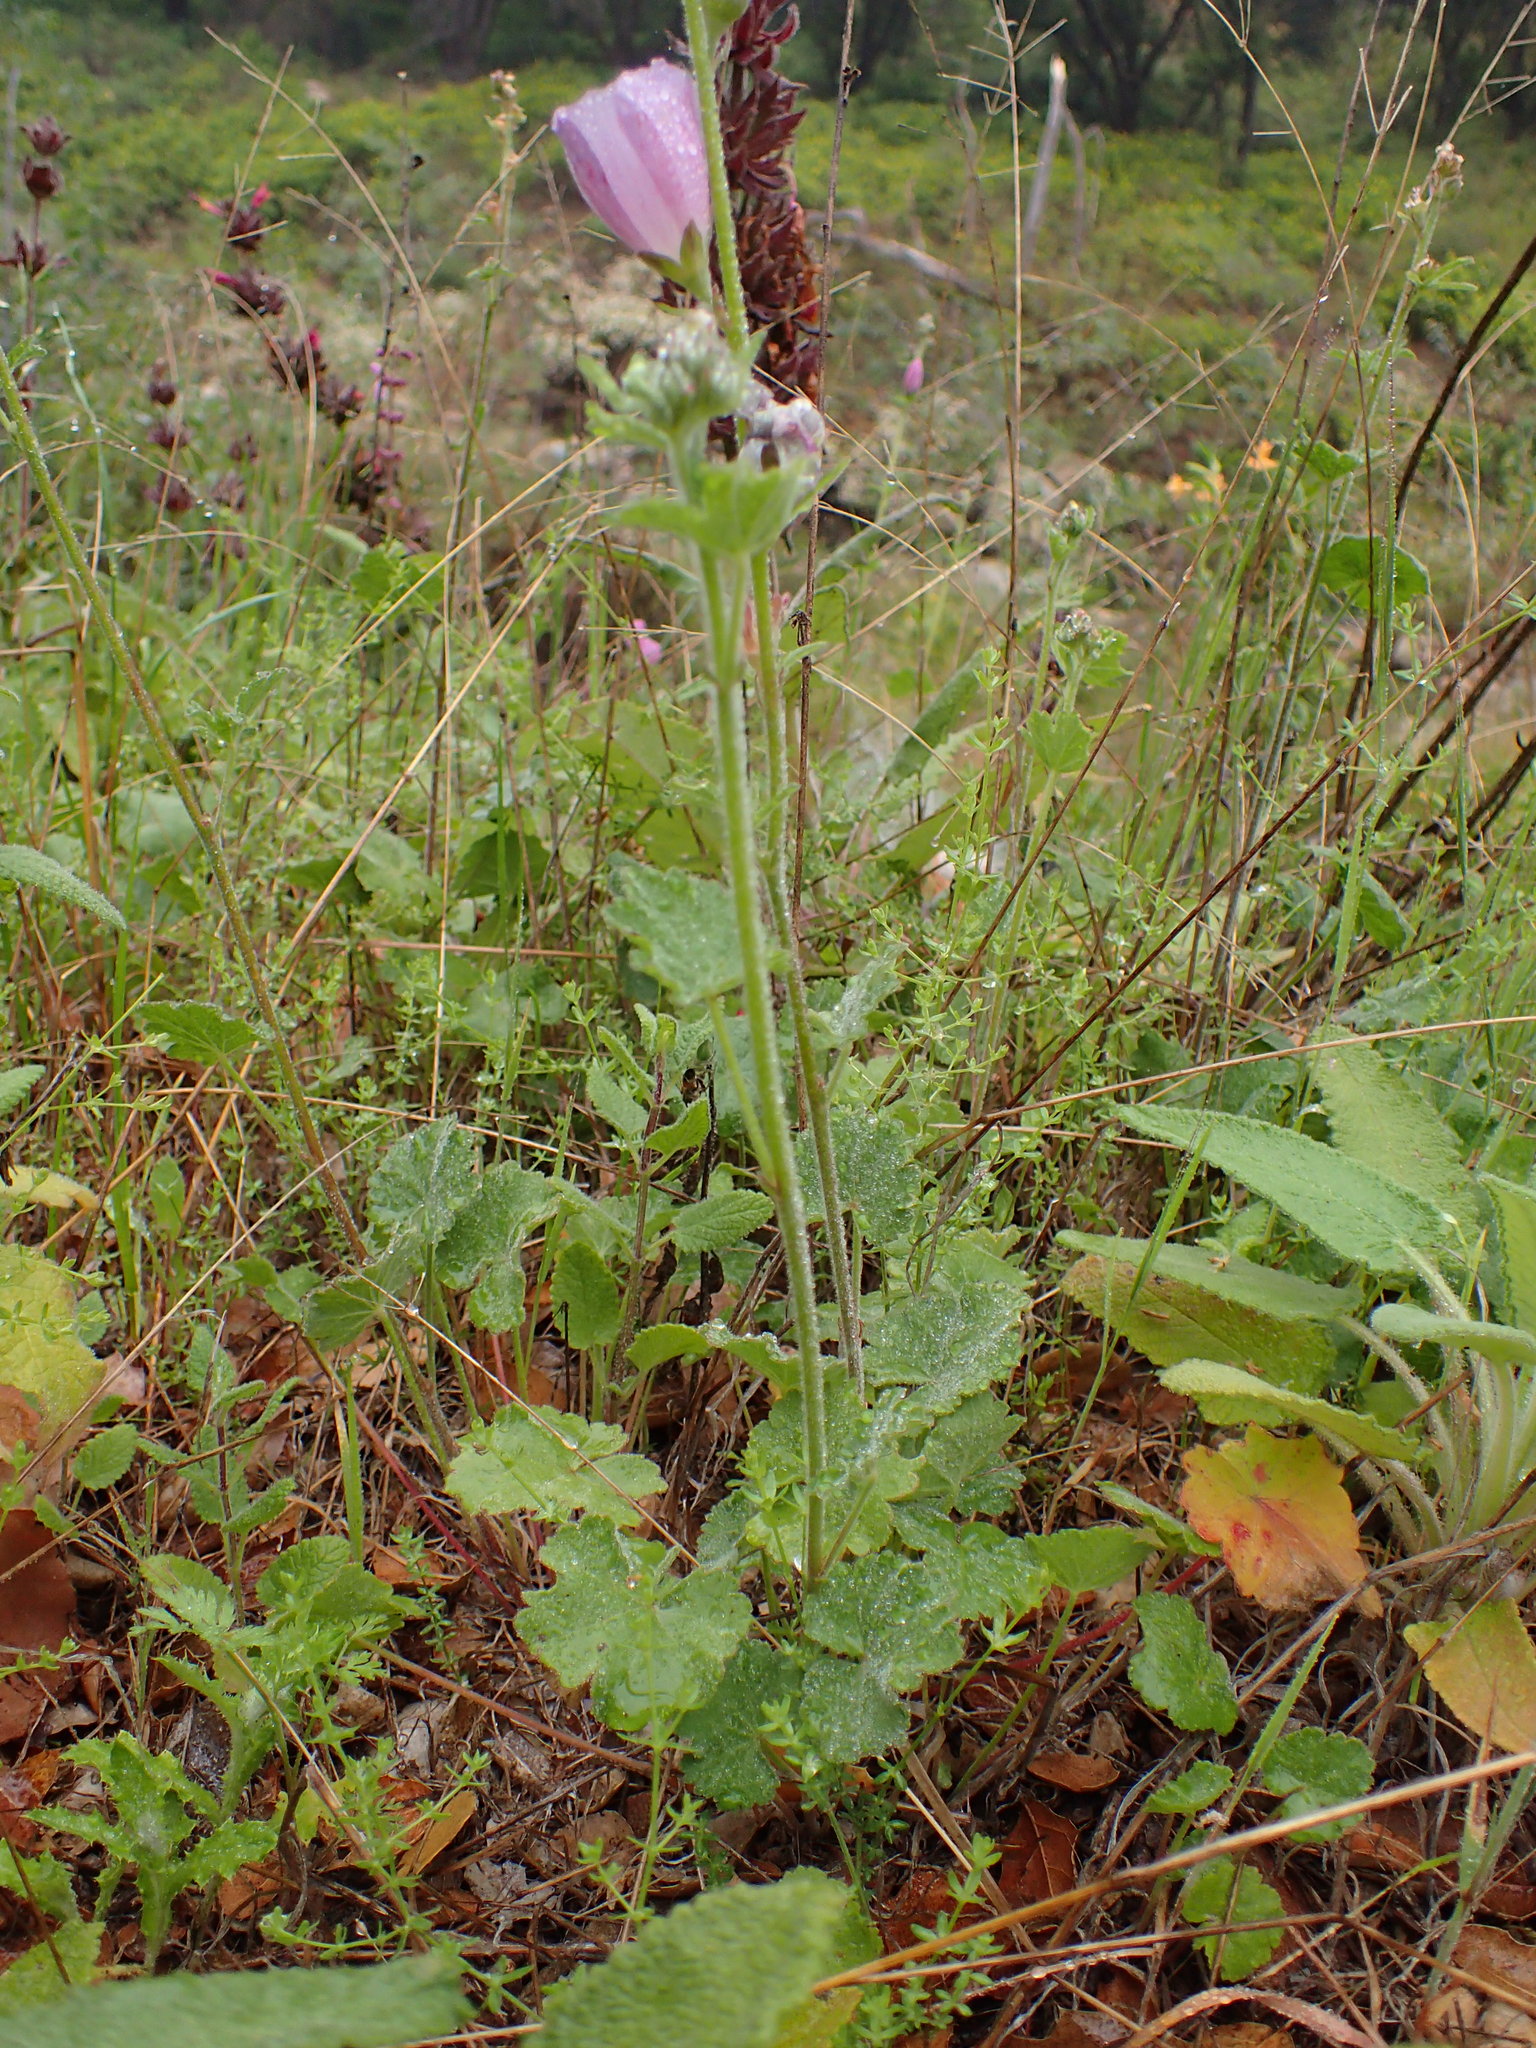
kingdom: Plantae
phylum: Tracheophyta
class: Magnoliopsida
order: Malvales
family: Malvaceae
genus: Sidalcea
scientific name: Sidalcea malviflora
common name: Greek mallow
